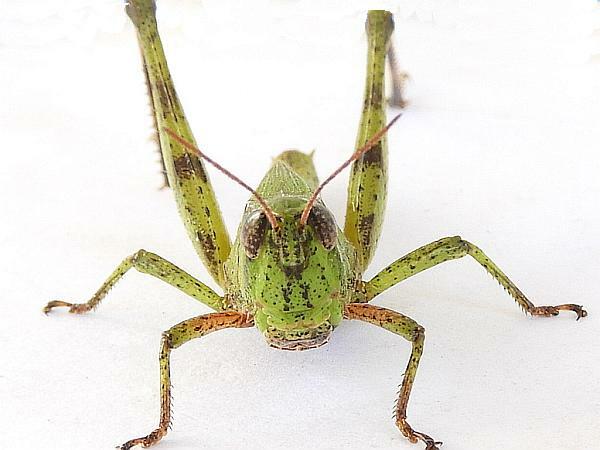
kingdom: Animalia
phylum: Arthropoda
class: Insecta
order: Orthoptera
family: Acrididae
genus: Dichromorpha
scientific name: Dichromorpha viridis
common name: Short-winged green grasshopper
